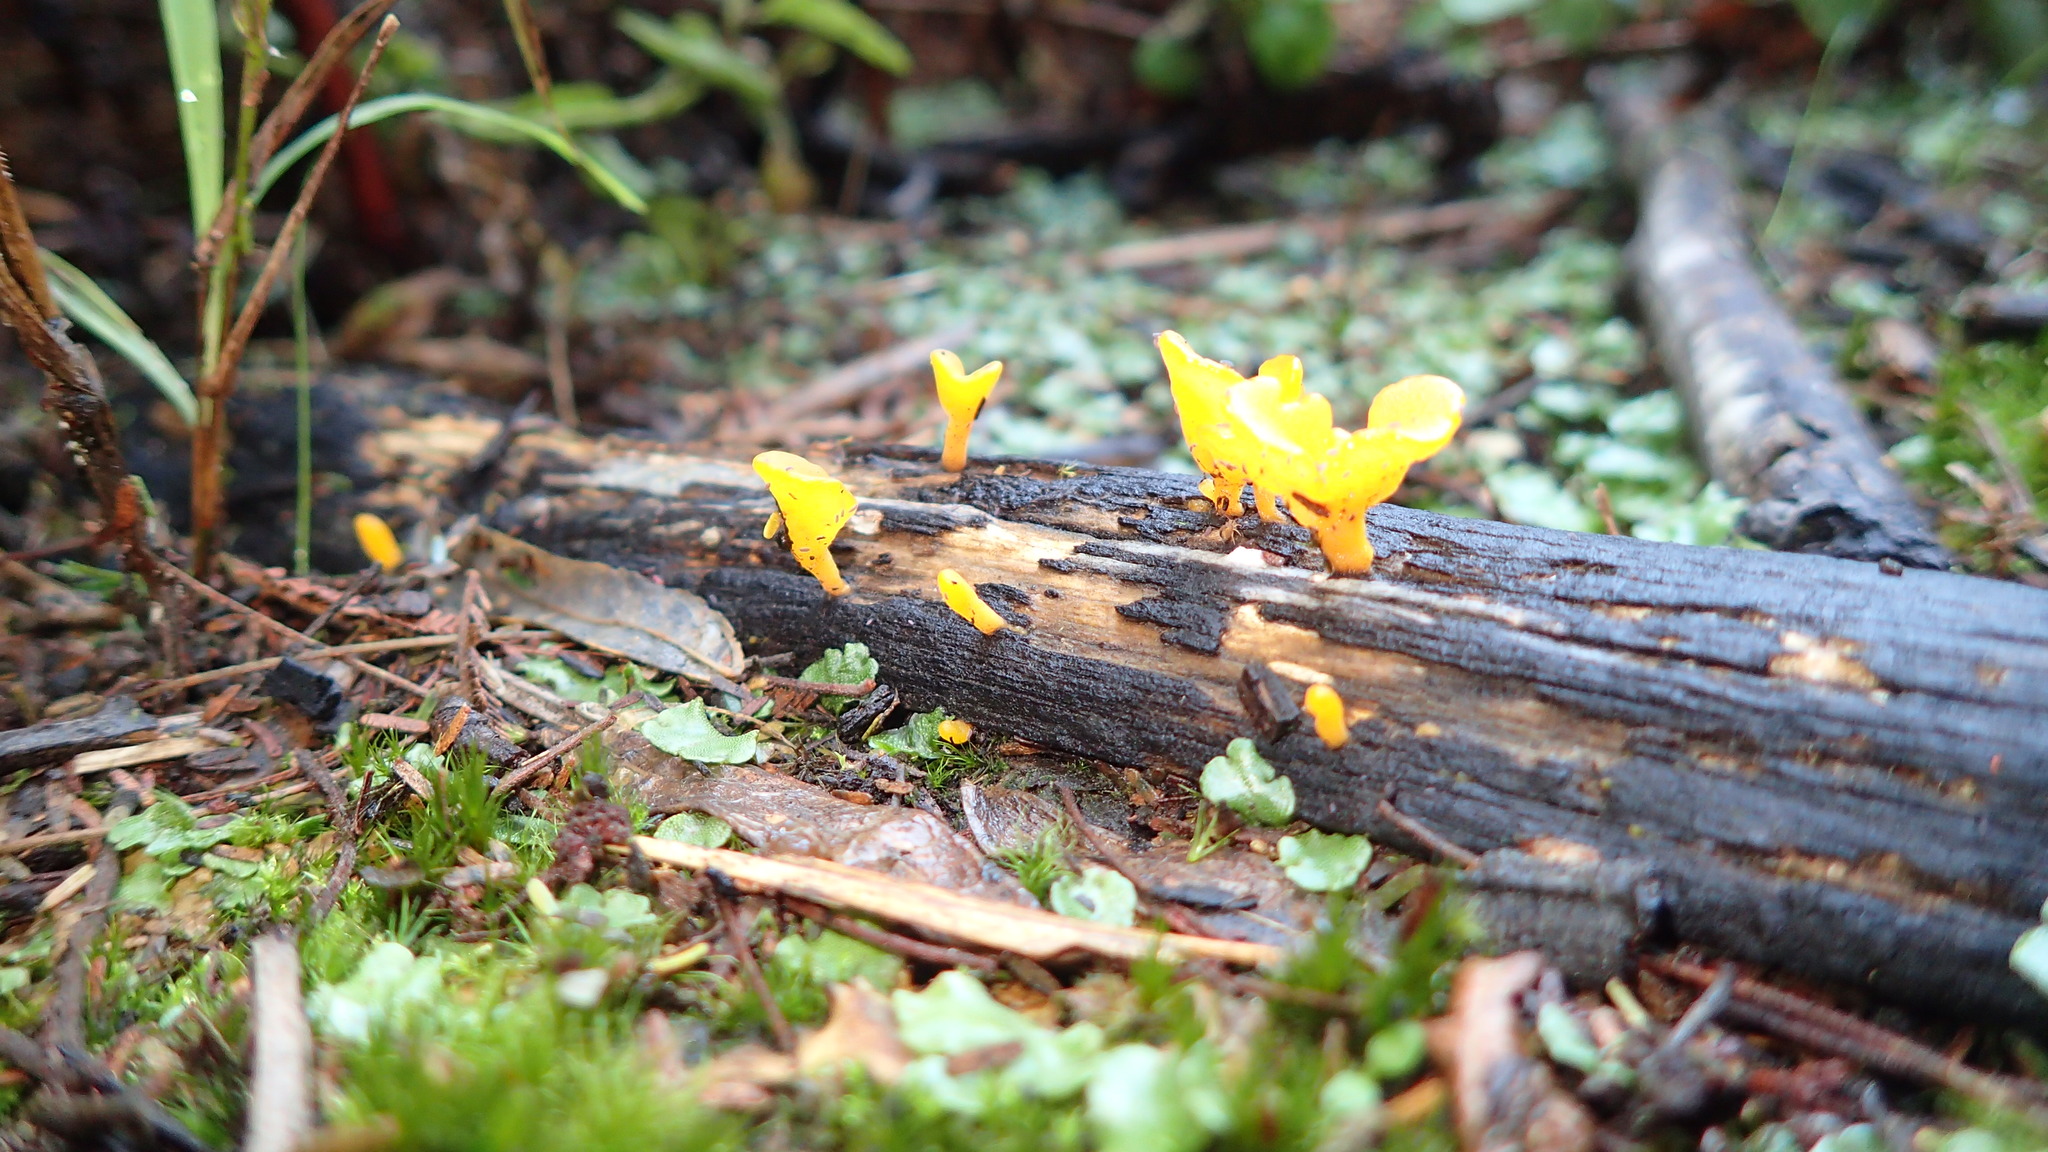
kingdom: Fungi
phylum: Basidiomycota
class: Dacrymycetes
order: Dacrymycetales
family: Dacrymycetaceae
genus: Dacrymyces
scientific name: Dacrymyces spathularius
